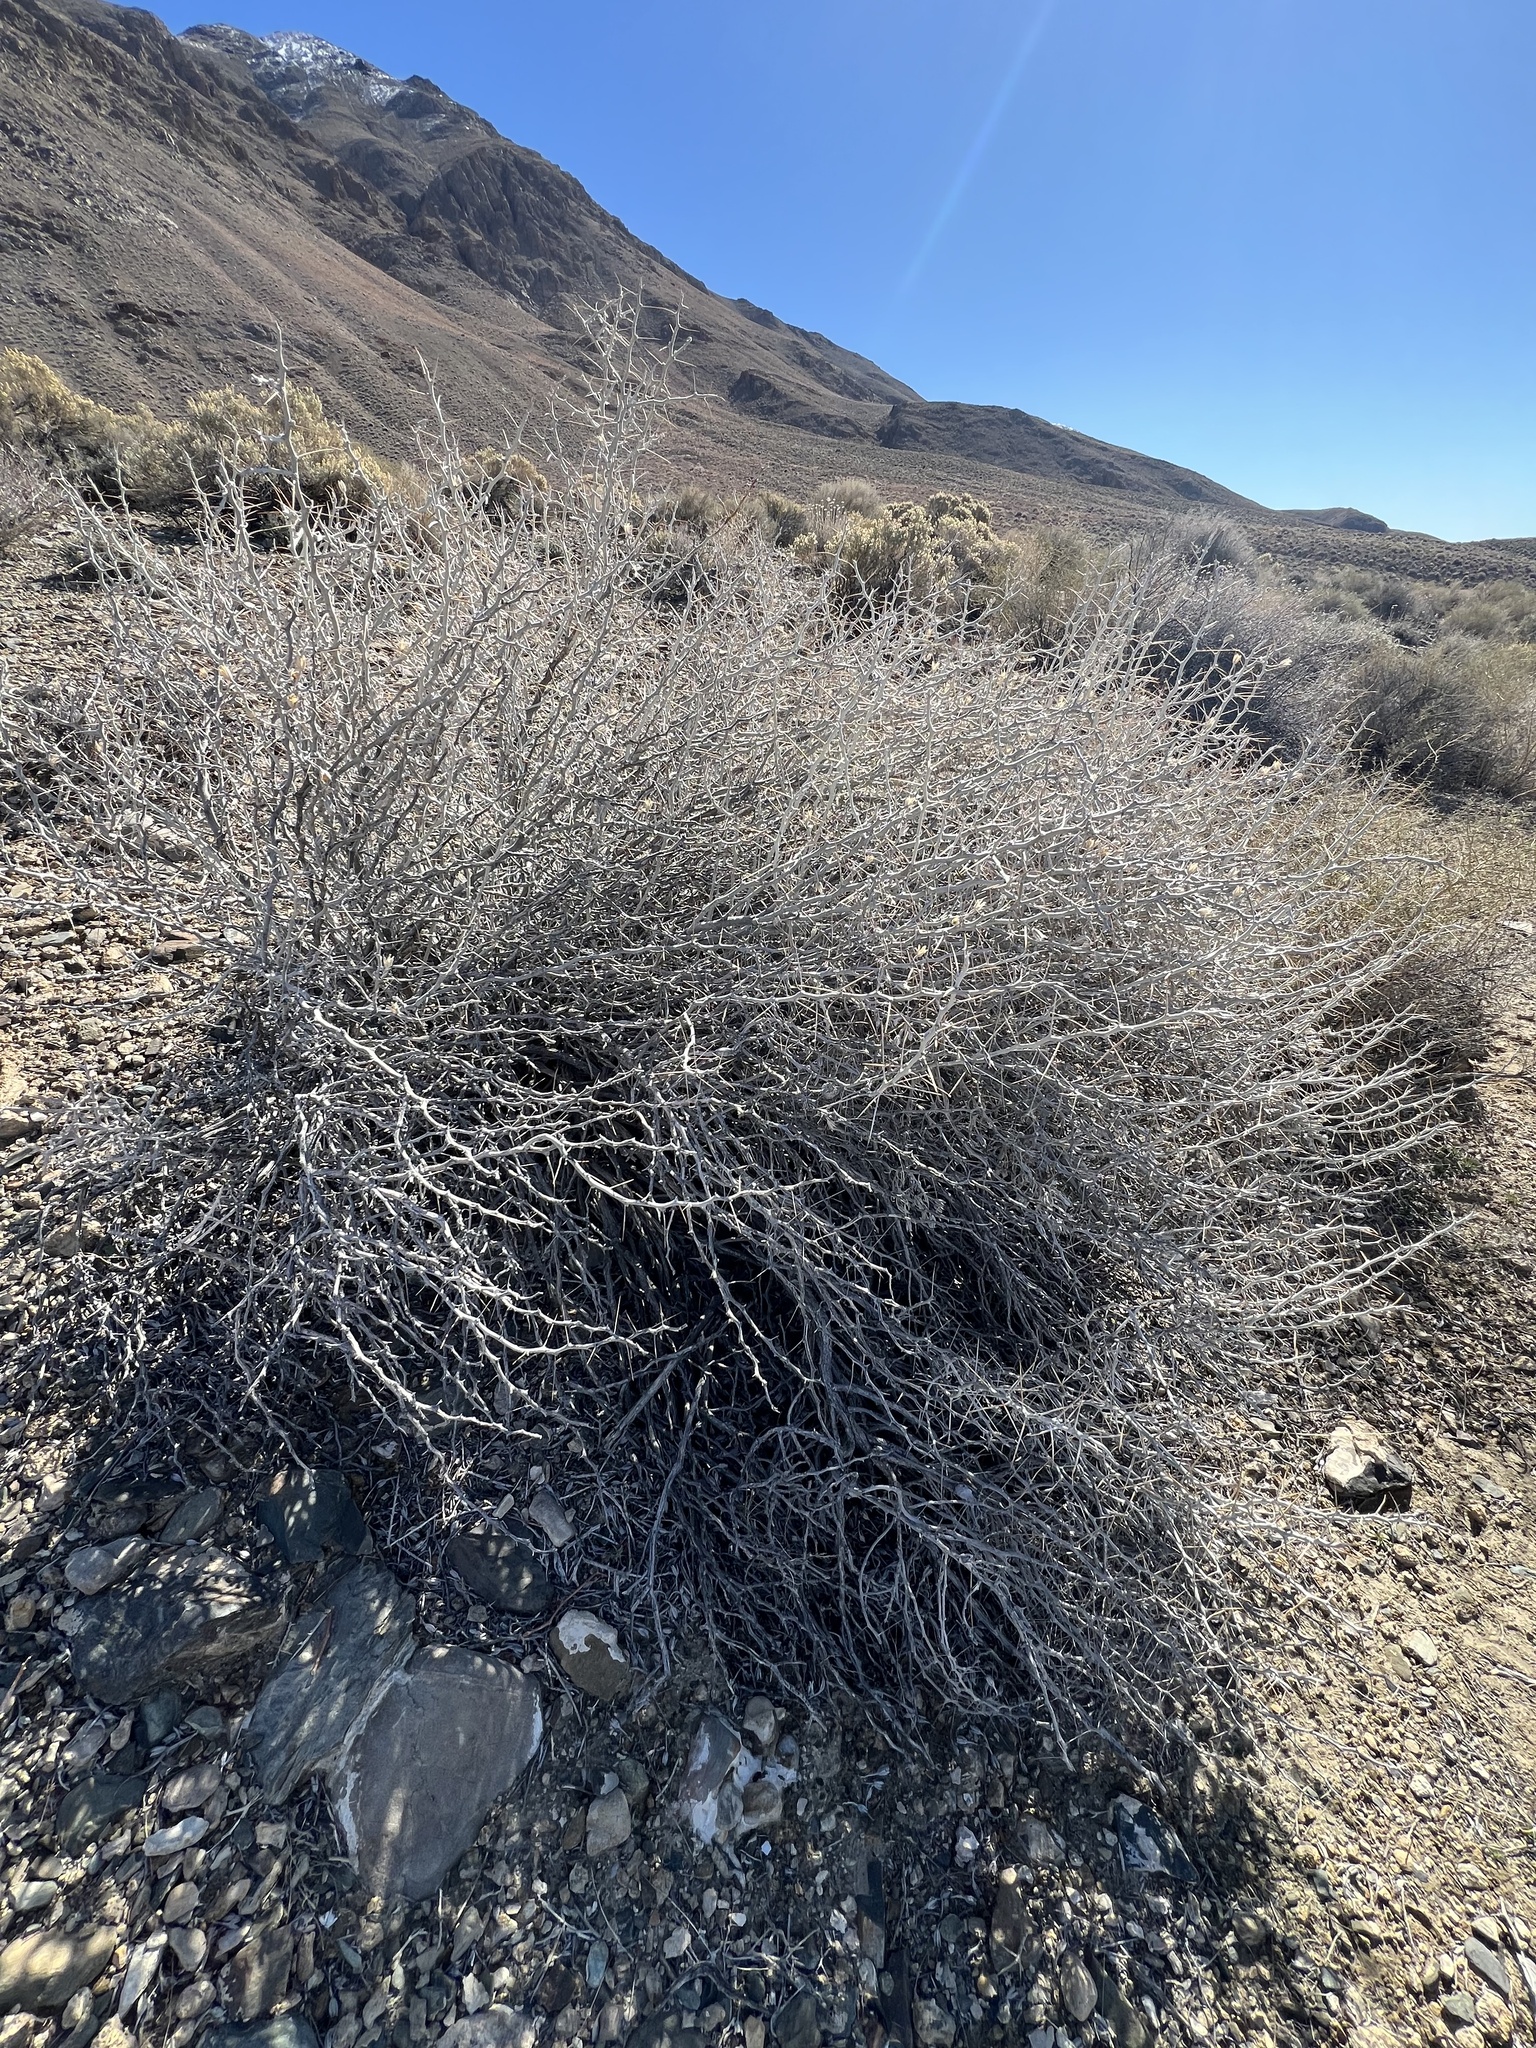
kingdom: Plantae
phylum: Tracheophyta
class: Magnoliopsida
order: Asterales
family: Asteraceae
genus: Tetradymia
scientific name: Tetradymia axillaris
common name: Long-spine horsebrush
